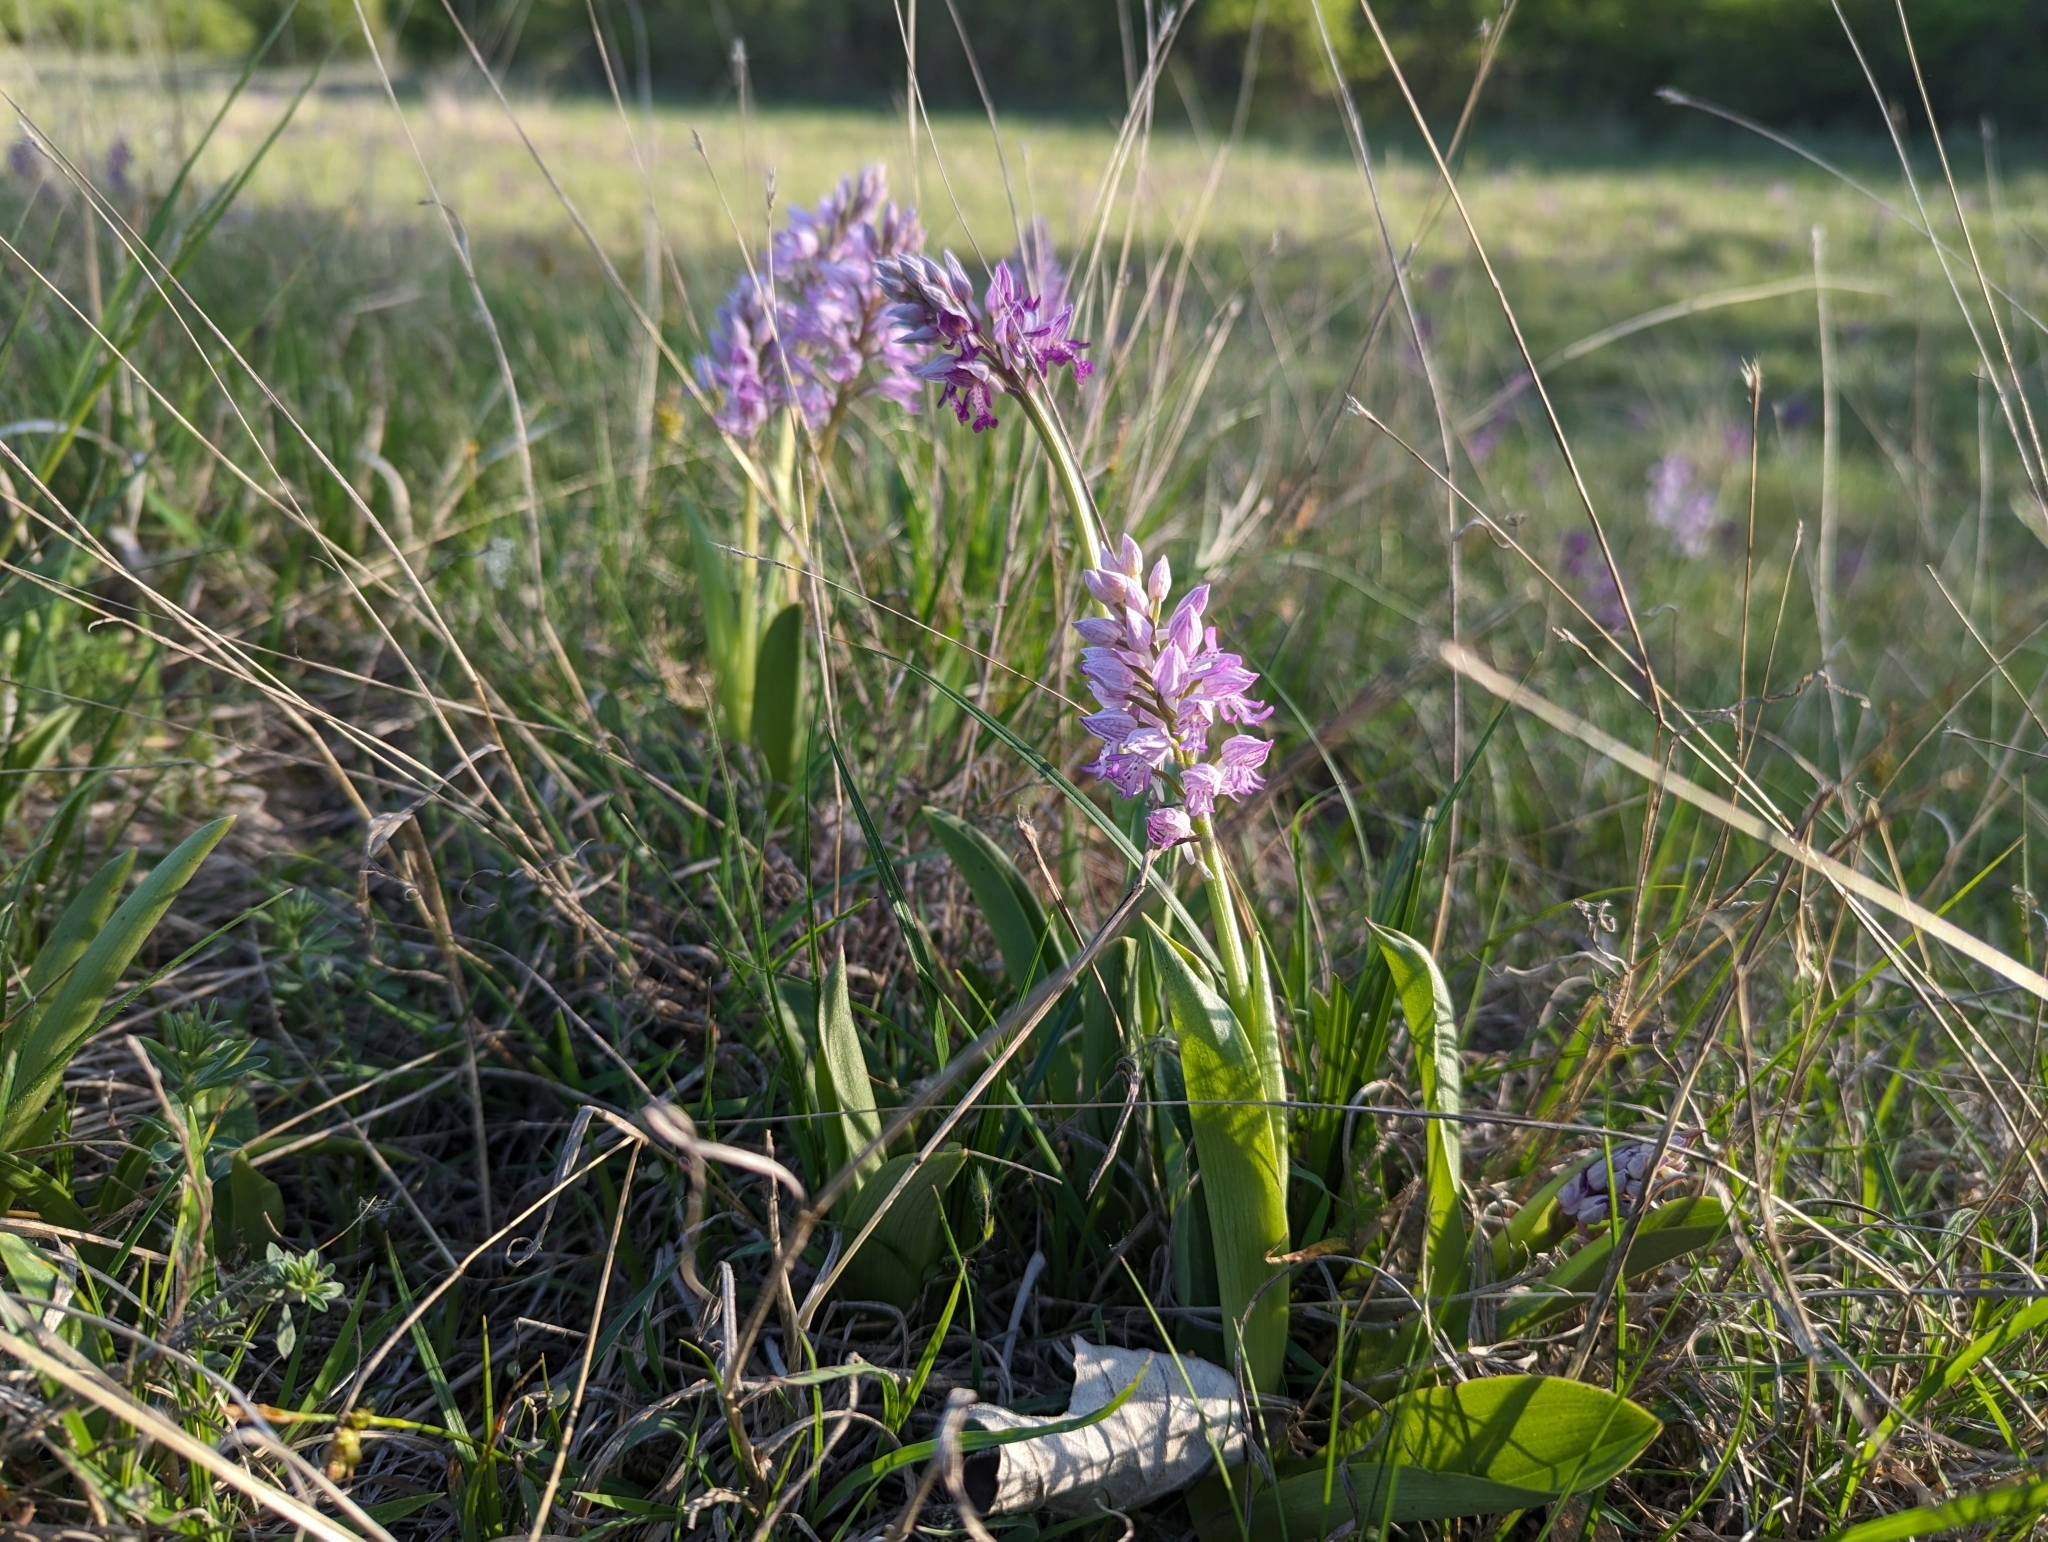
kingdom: Plantae
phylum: Tracheophyta
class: Liliopsida
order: Asparagales
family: Orchidaceae
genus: Orchis
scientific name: Orchis militaris
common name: Military orchid
